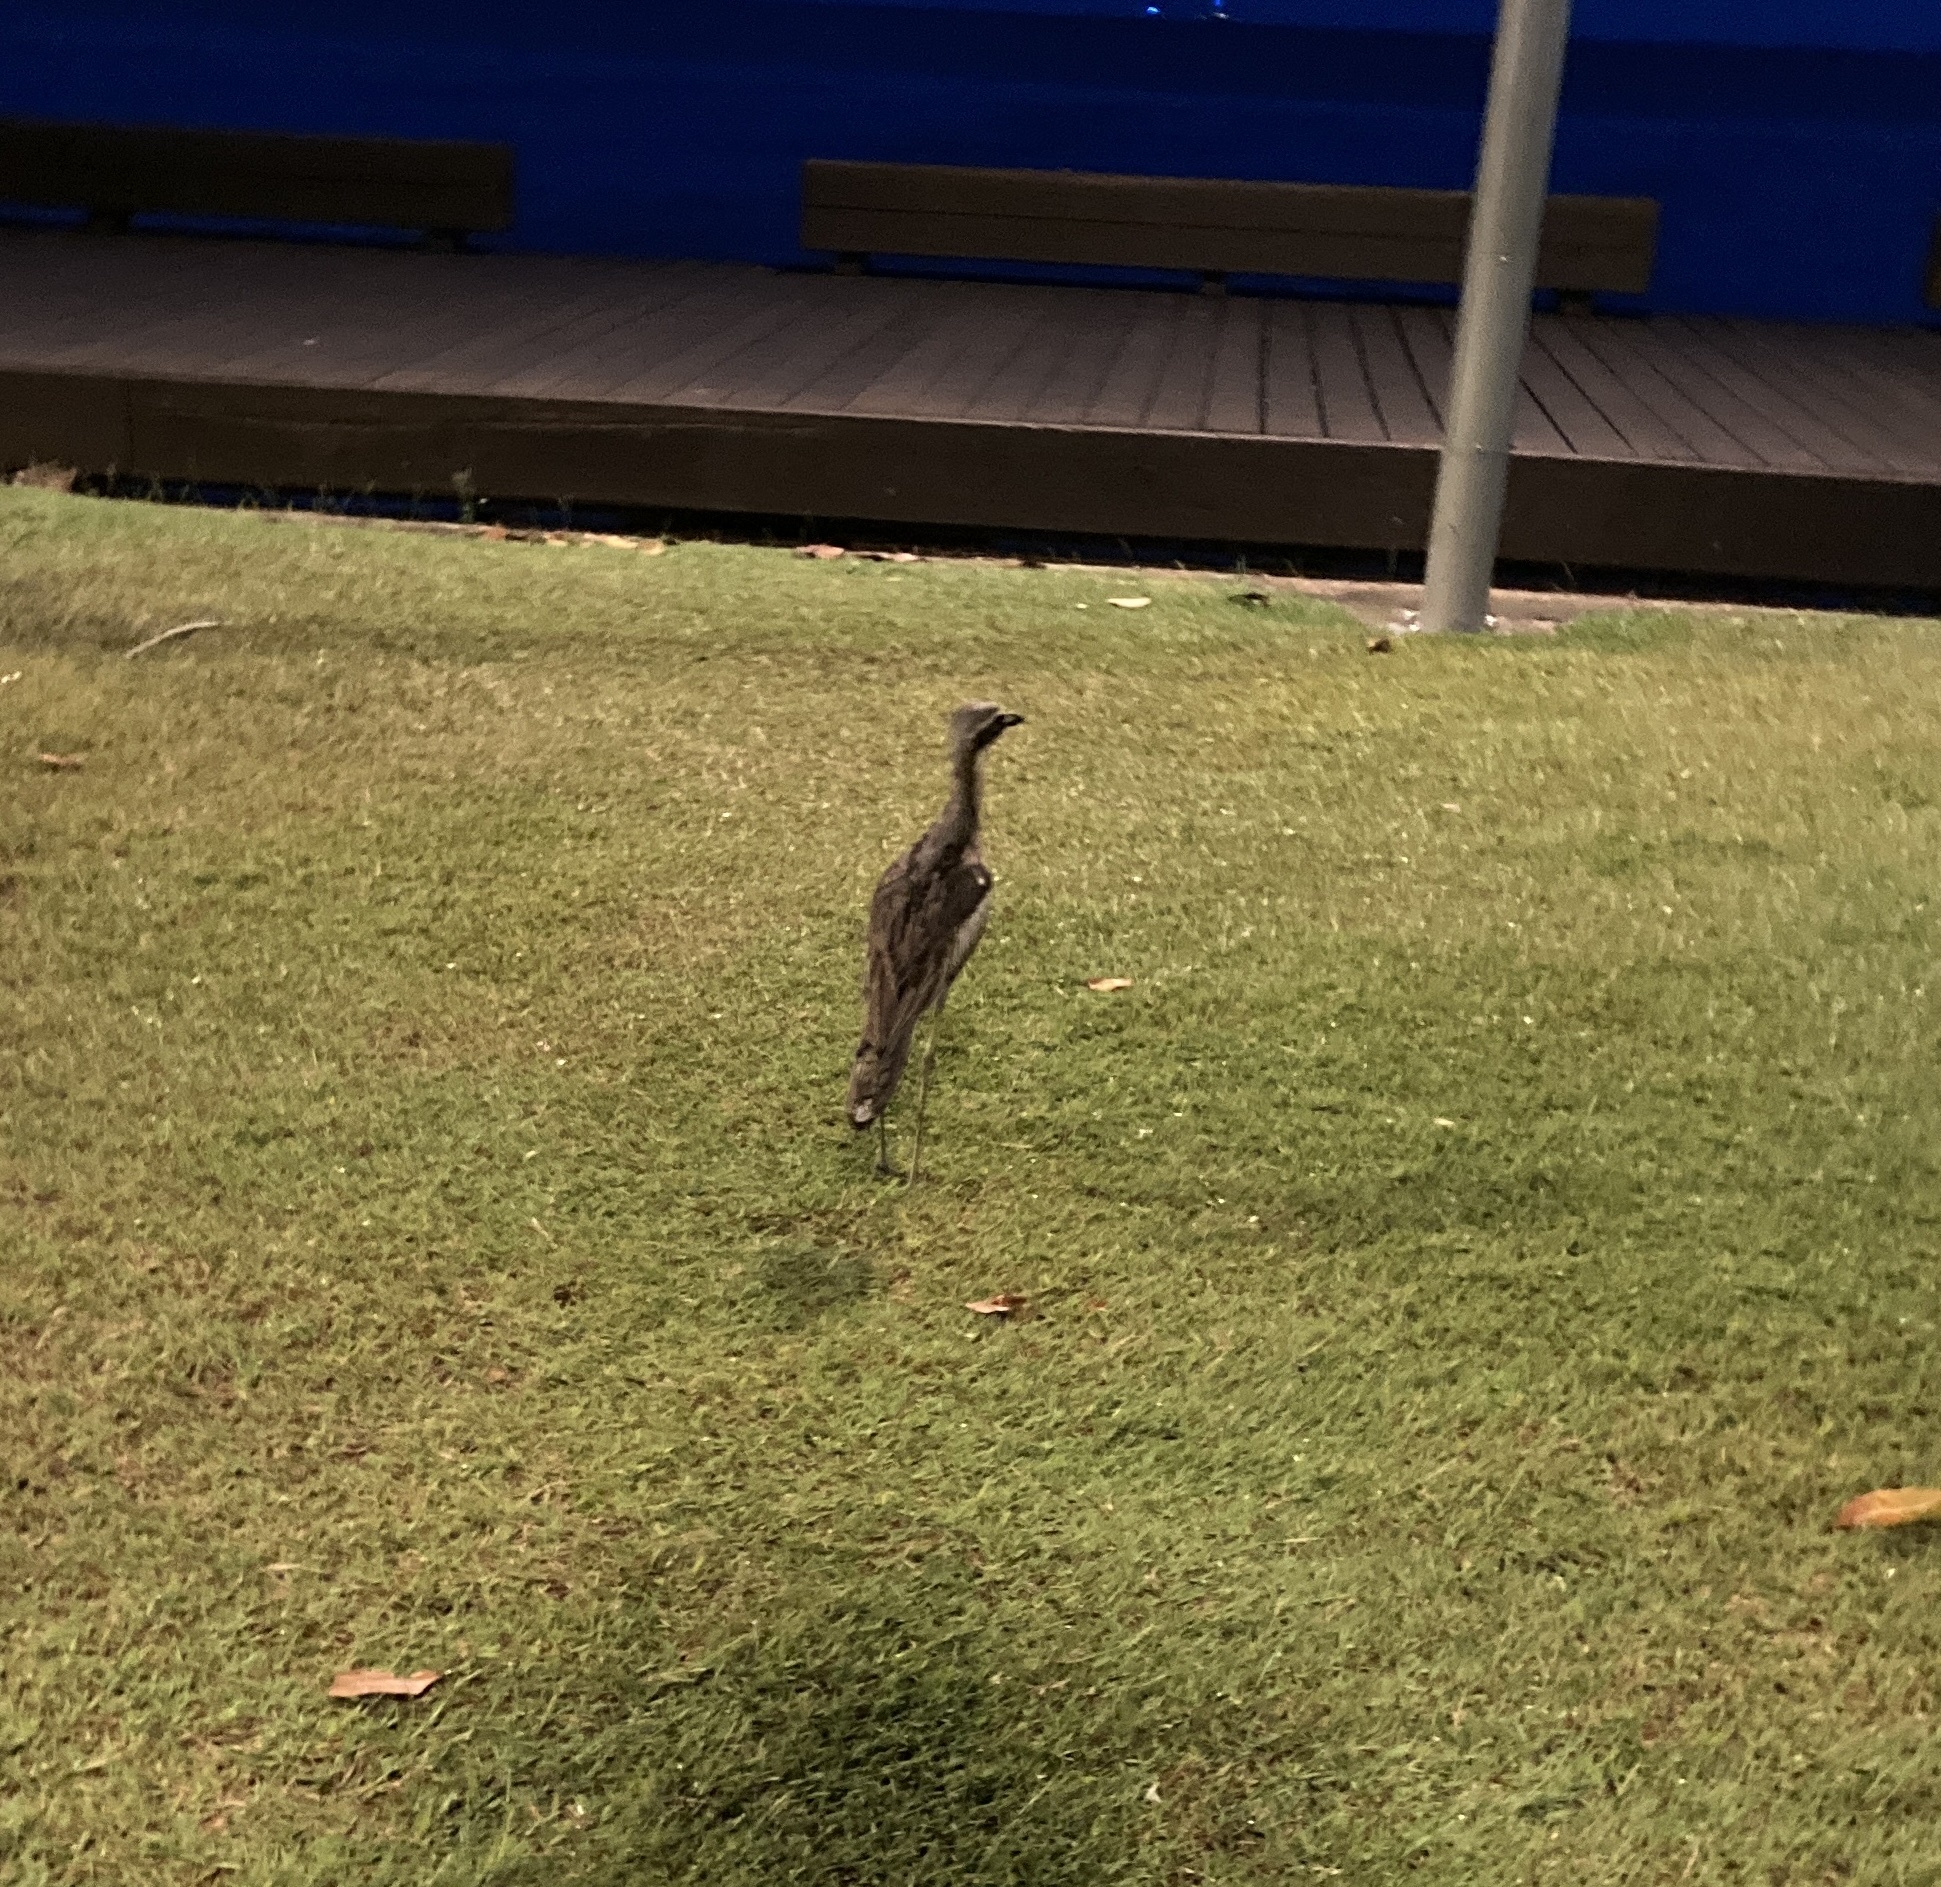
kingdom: Animalia
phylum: Chordata
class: Aves
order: Charadriiformes
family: Burhinidae
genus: Burhinus
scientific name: Burhinus grallarius
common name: Bush stone-curlew
